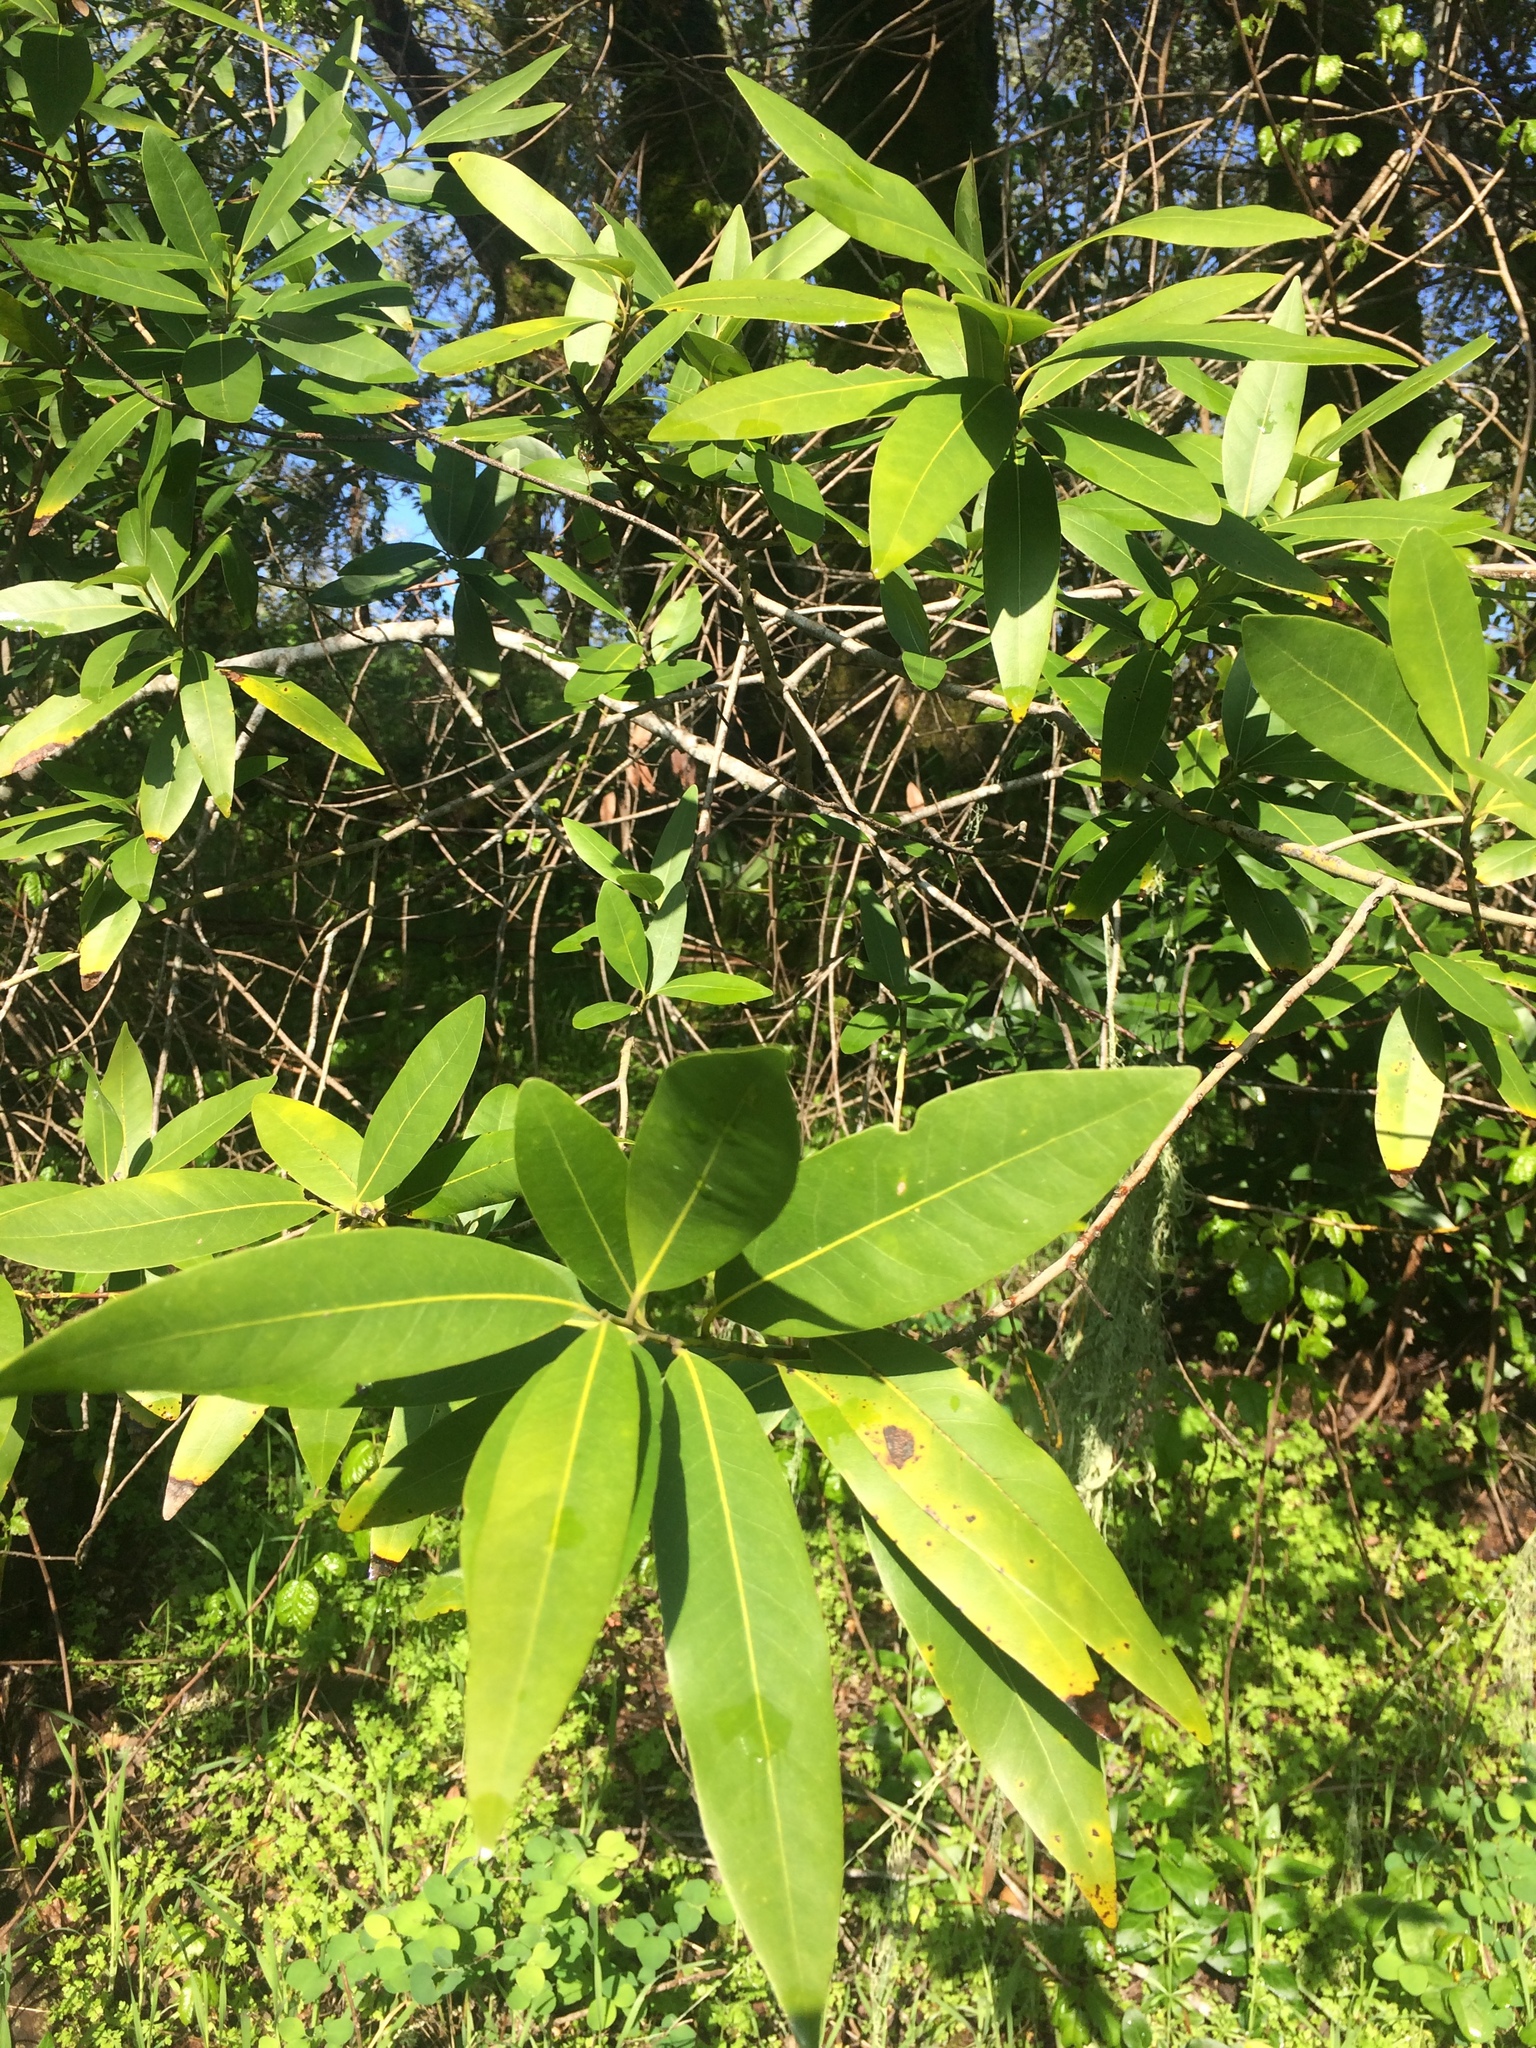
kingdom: Plantae
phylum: Tracheophyta
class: Magnoliopsida
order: Laurales
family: Lauraceae
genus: Umbellularia
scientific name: Umbellularia californica
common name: California bay
